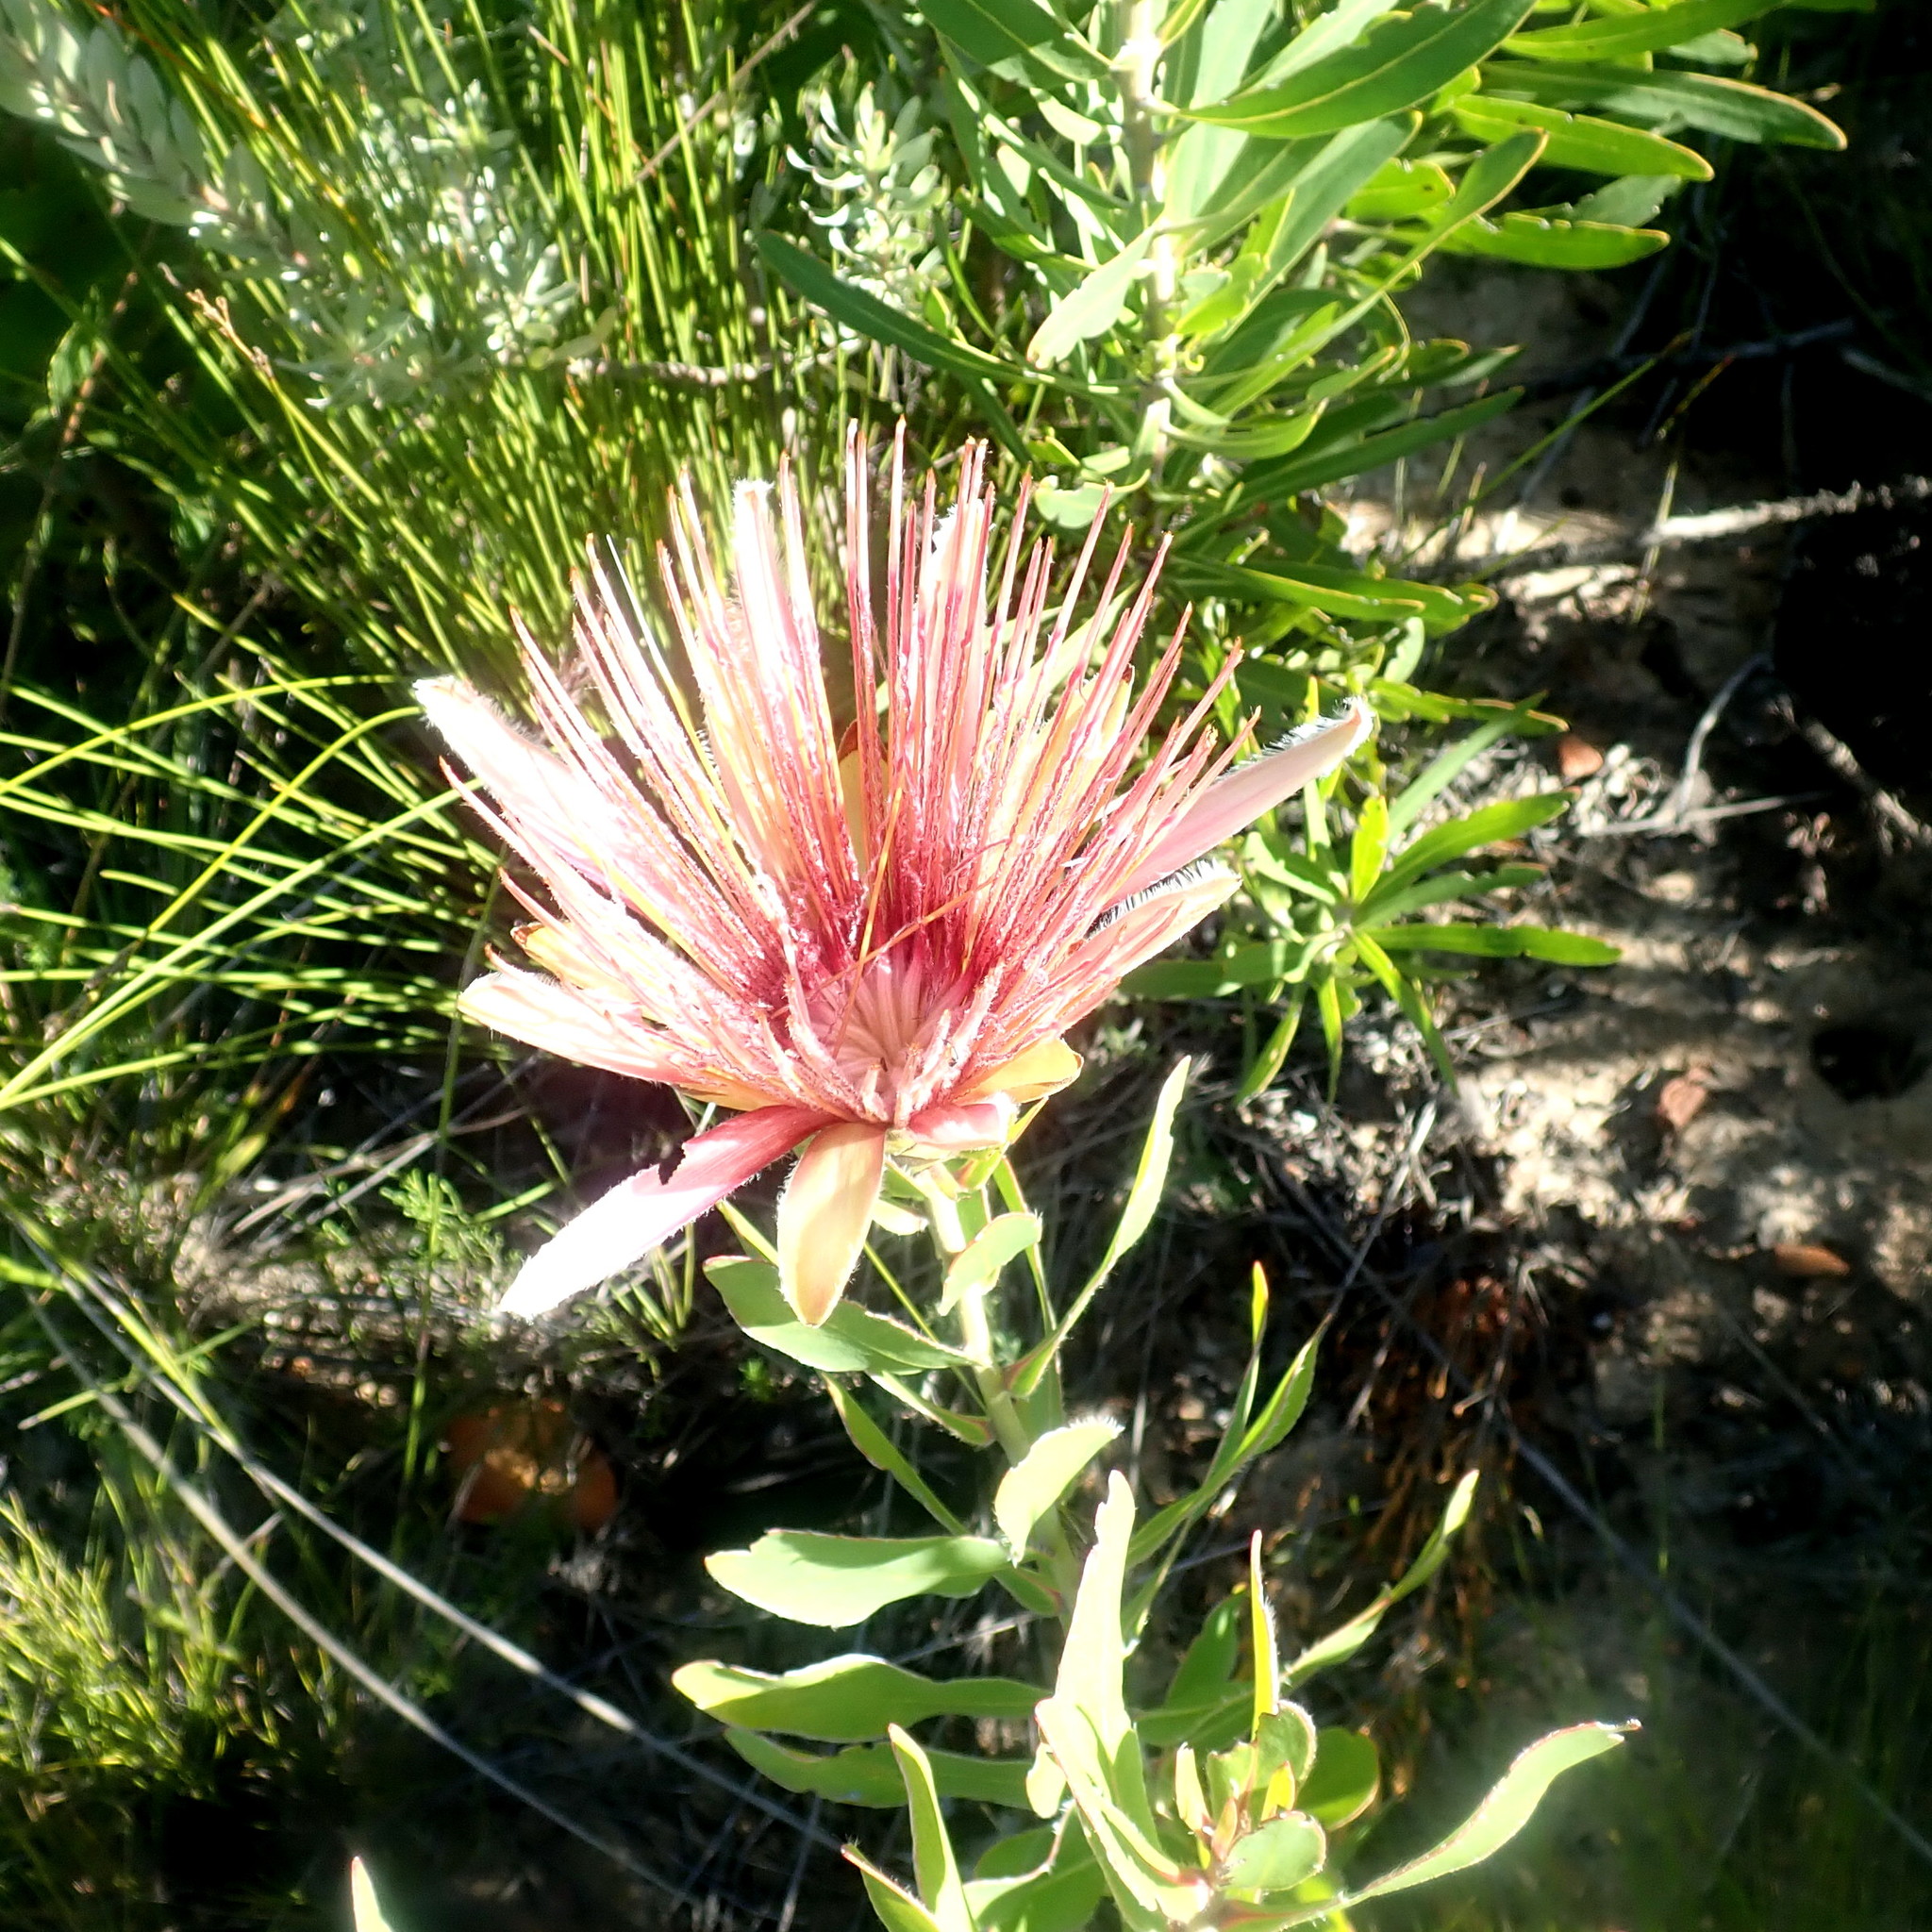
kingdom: Plantae
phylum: Tracheophyta
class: Magnoliopsida
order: Proteales
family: Proteaceae
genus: Protea
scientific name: Protea aurea
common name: Shuttlecock sugarbush
